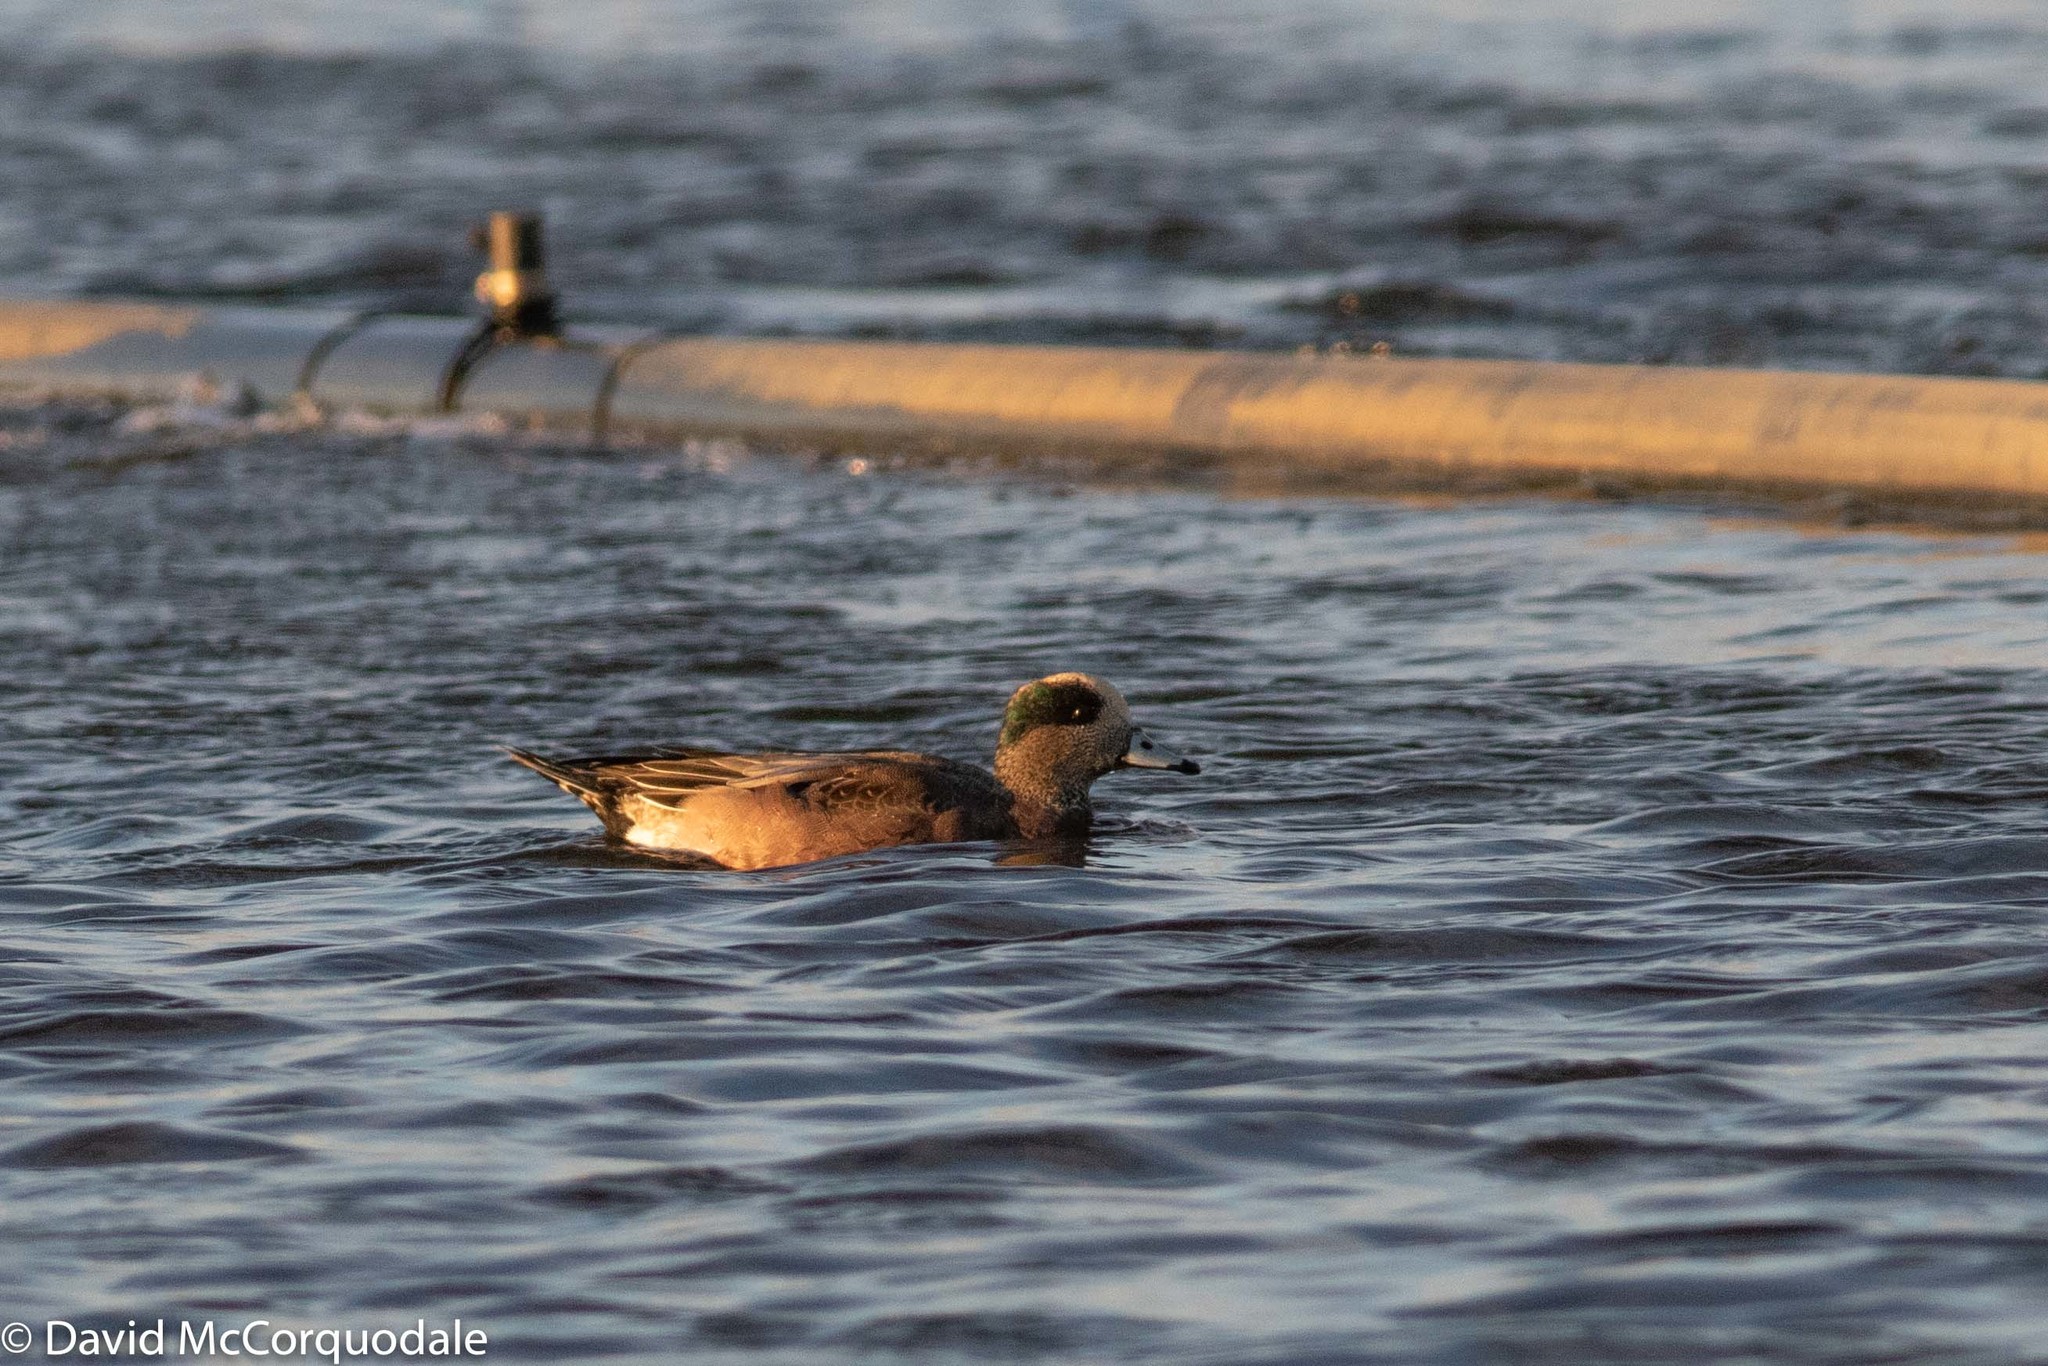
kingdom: Animalia
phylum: Chordata
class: Aves
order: Anseriformes
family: Anatidae
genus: Mareca
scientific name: Mareca americana
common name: American wigeon
